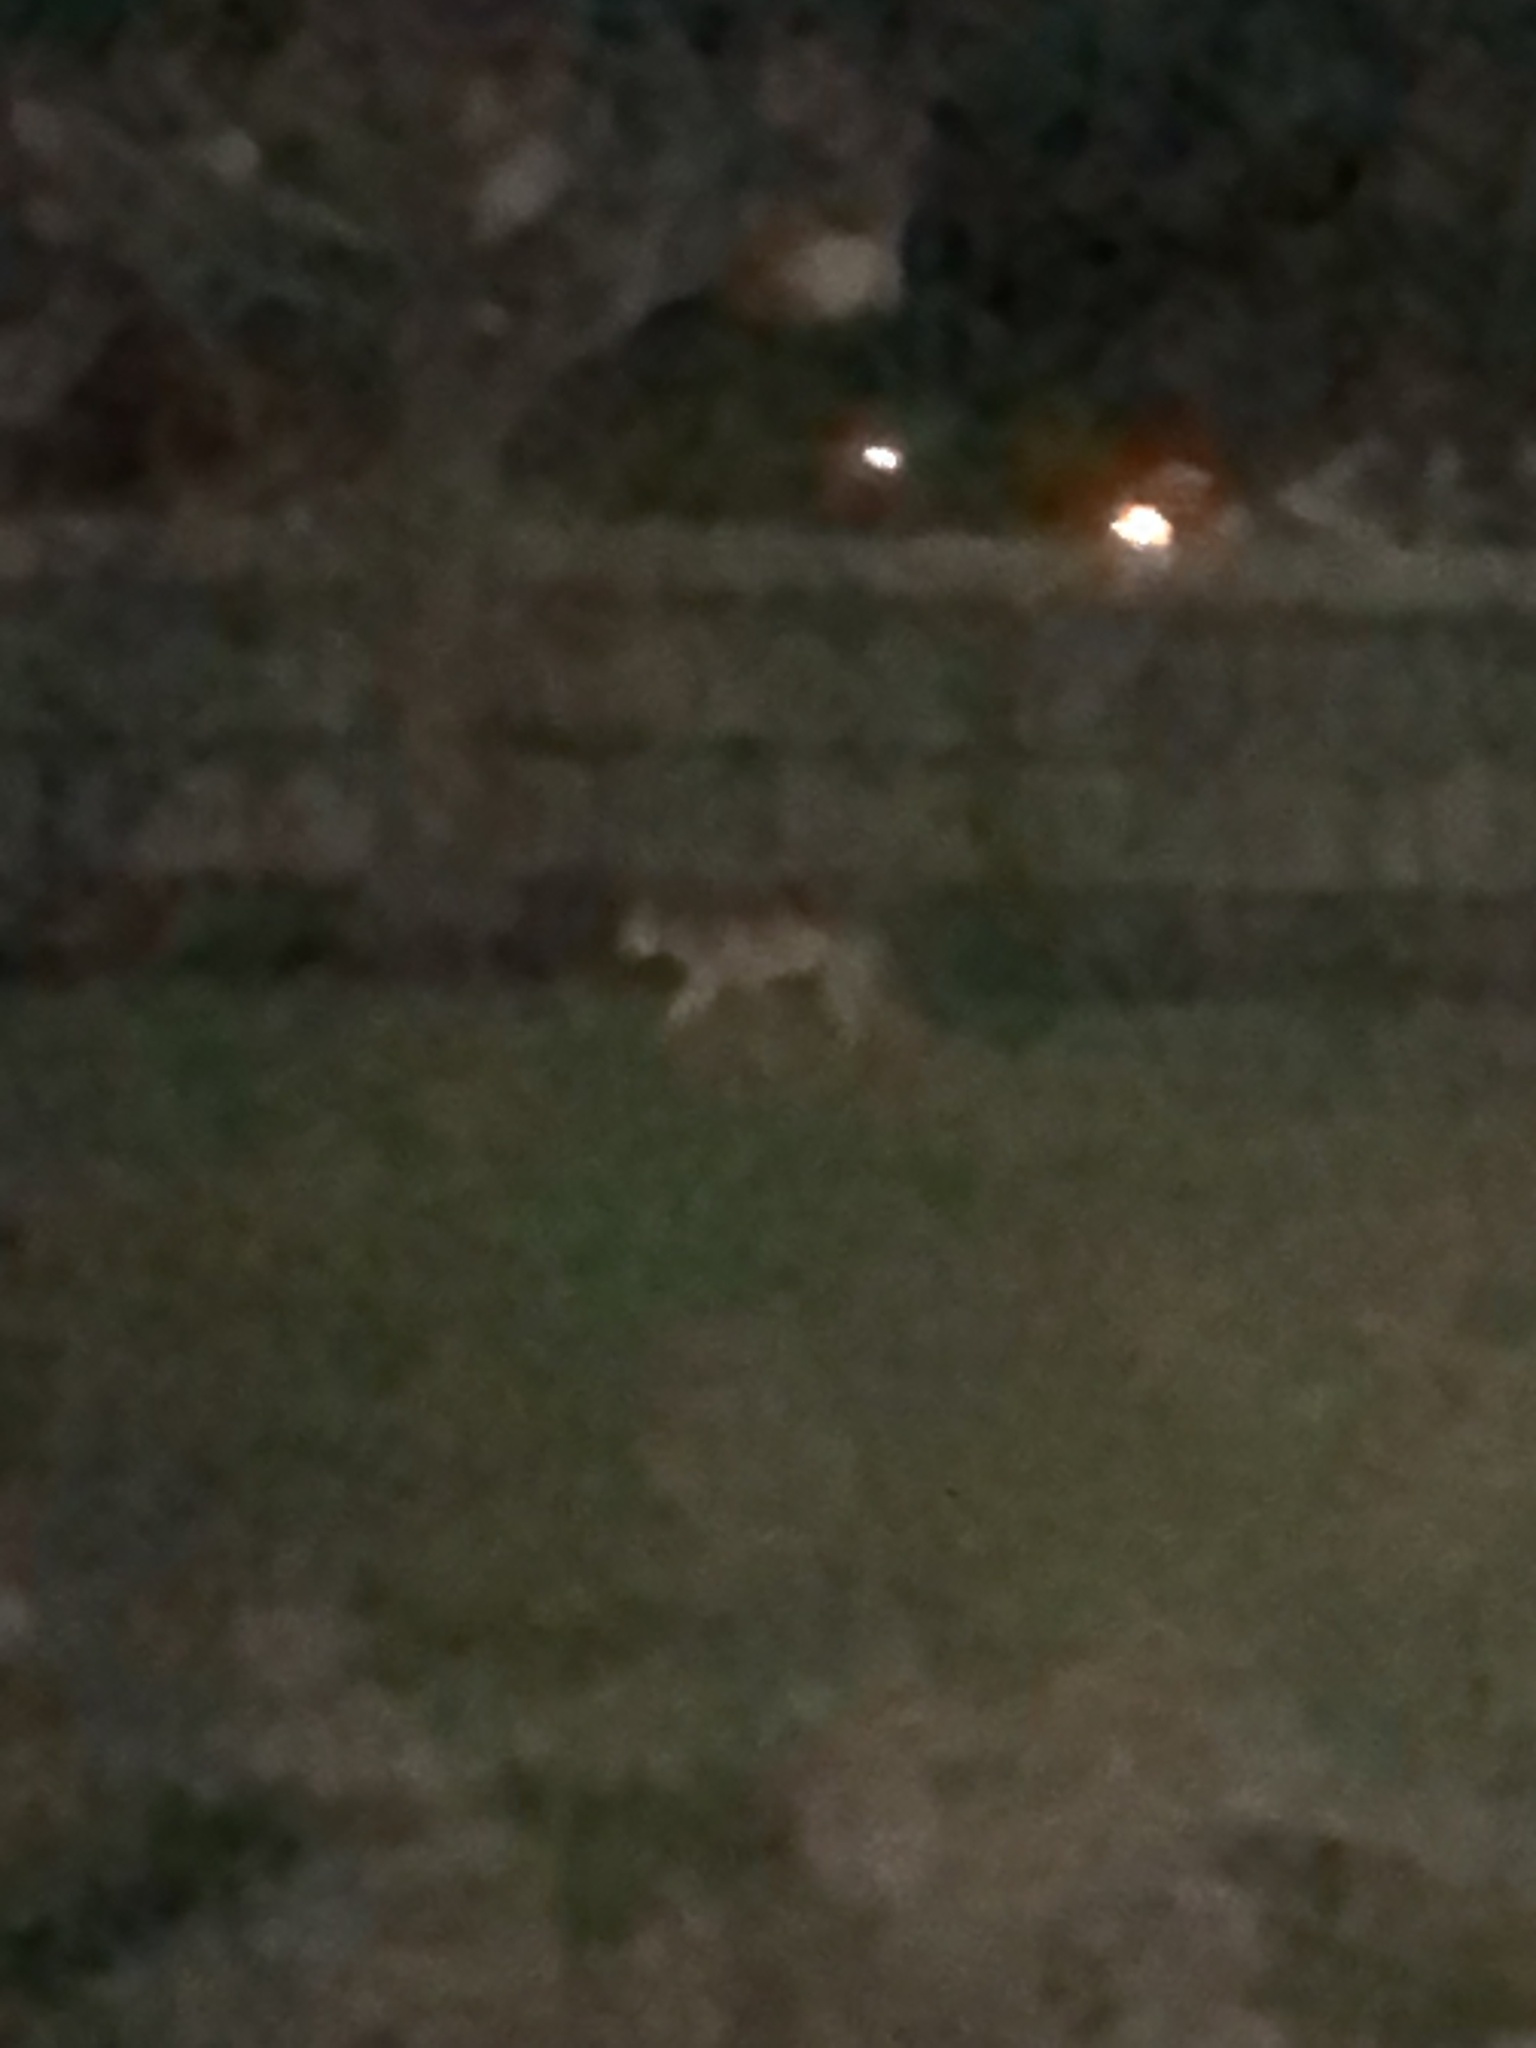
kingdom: Animalia
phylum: Chordata
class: Mammalia
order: Carnivora
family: Canidae
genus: Canis
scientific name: Canis latrans
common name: Coyote
